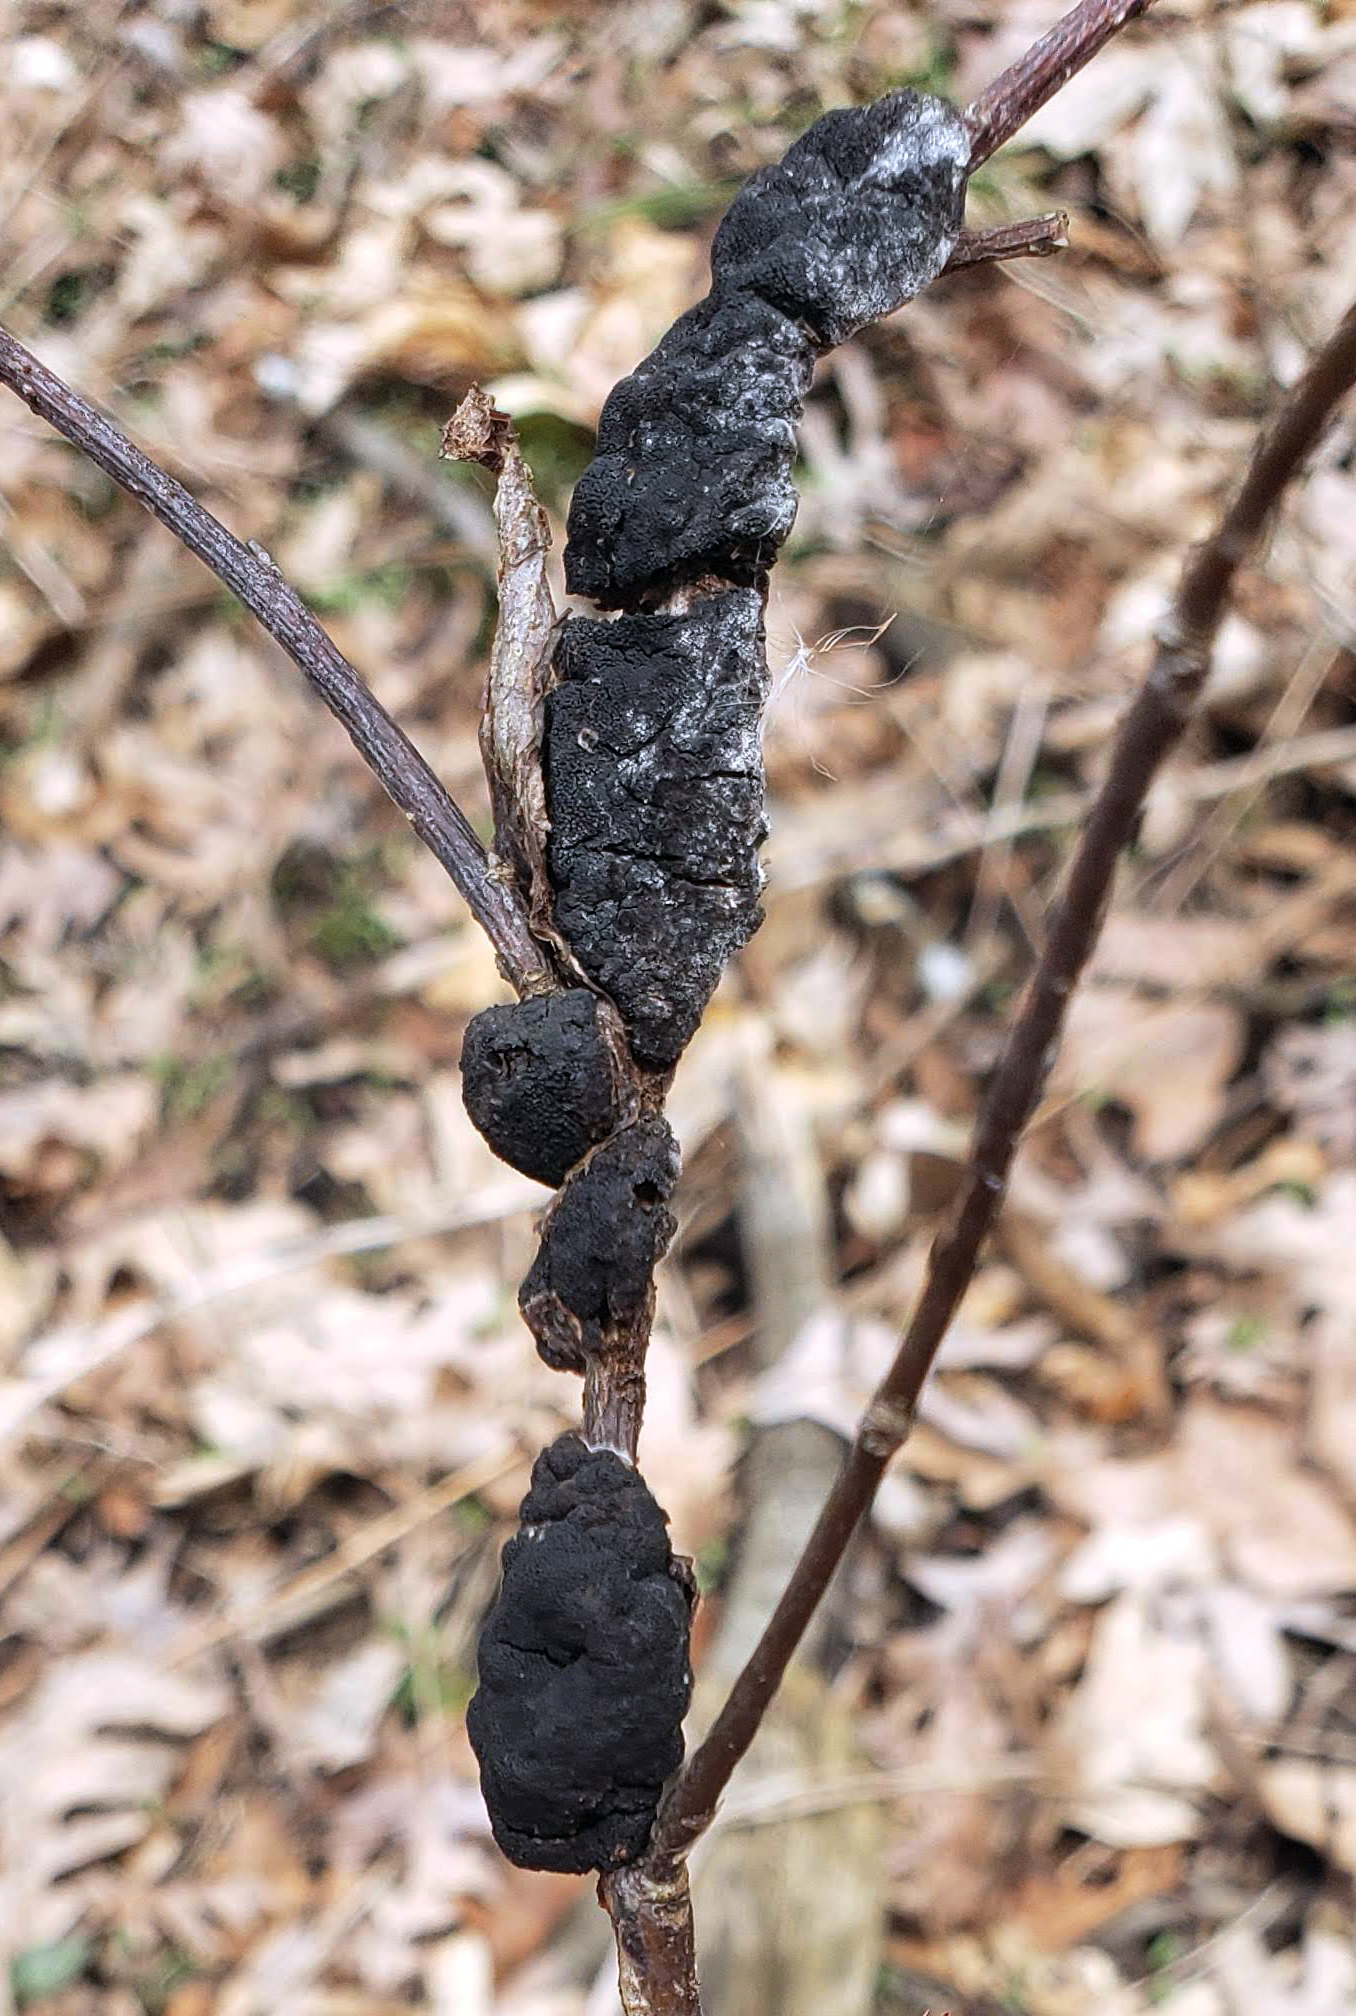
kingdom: Fungi
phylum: Ascomycota
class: Dothideomycetes
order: Venturiales
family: Venturiaceae
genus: Apiosporina
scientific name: Apiosporina morbosa
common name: Black knot
